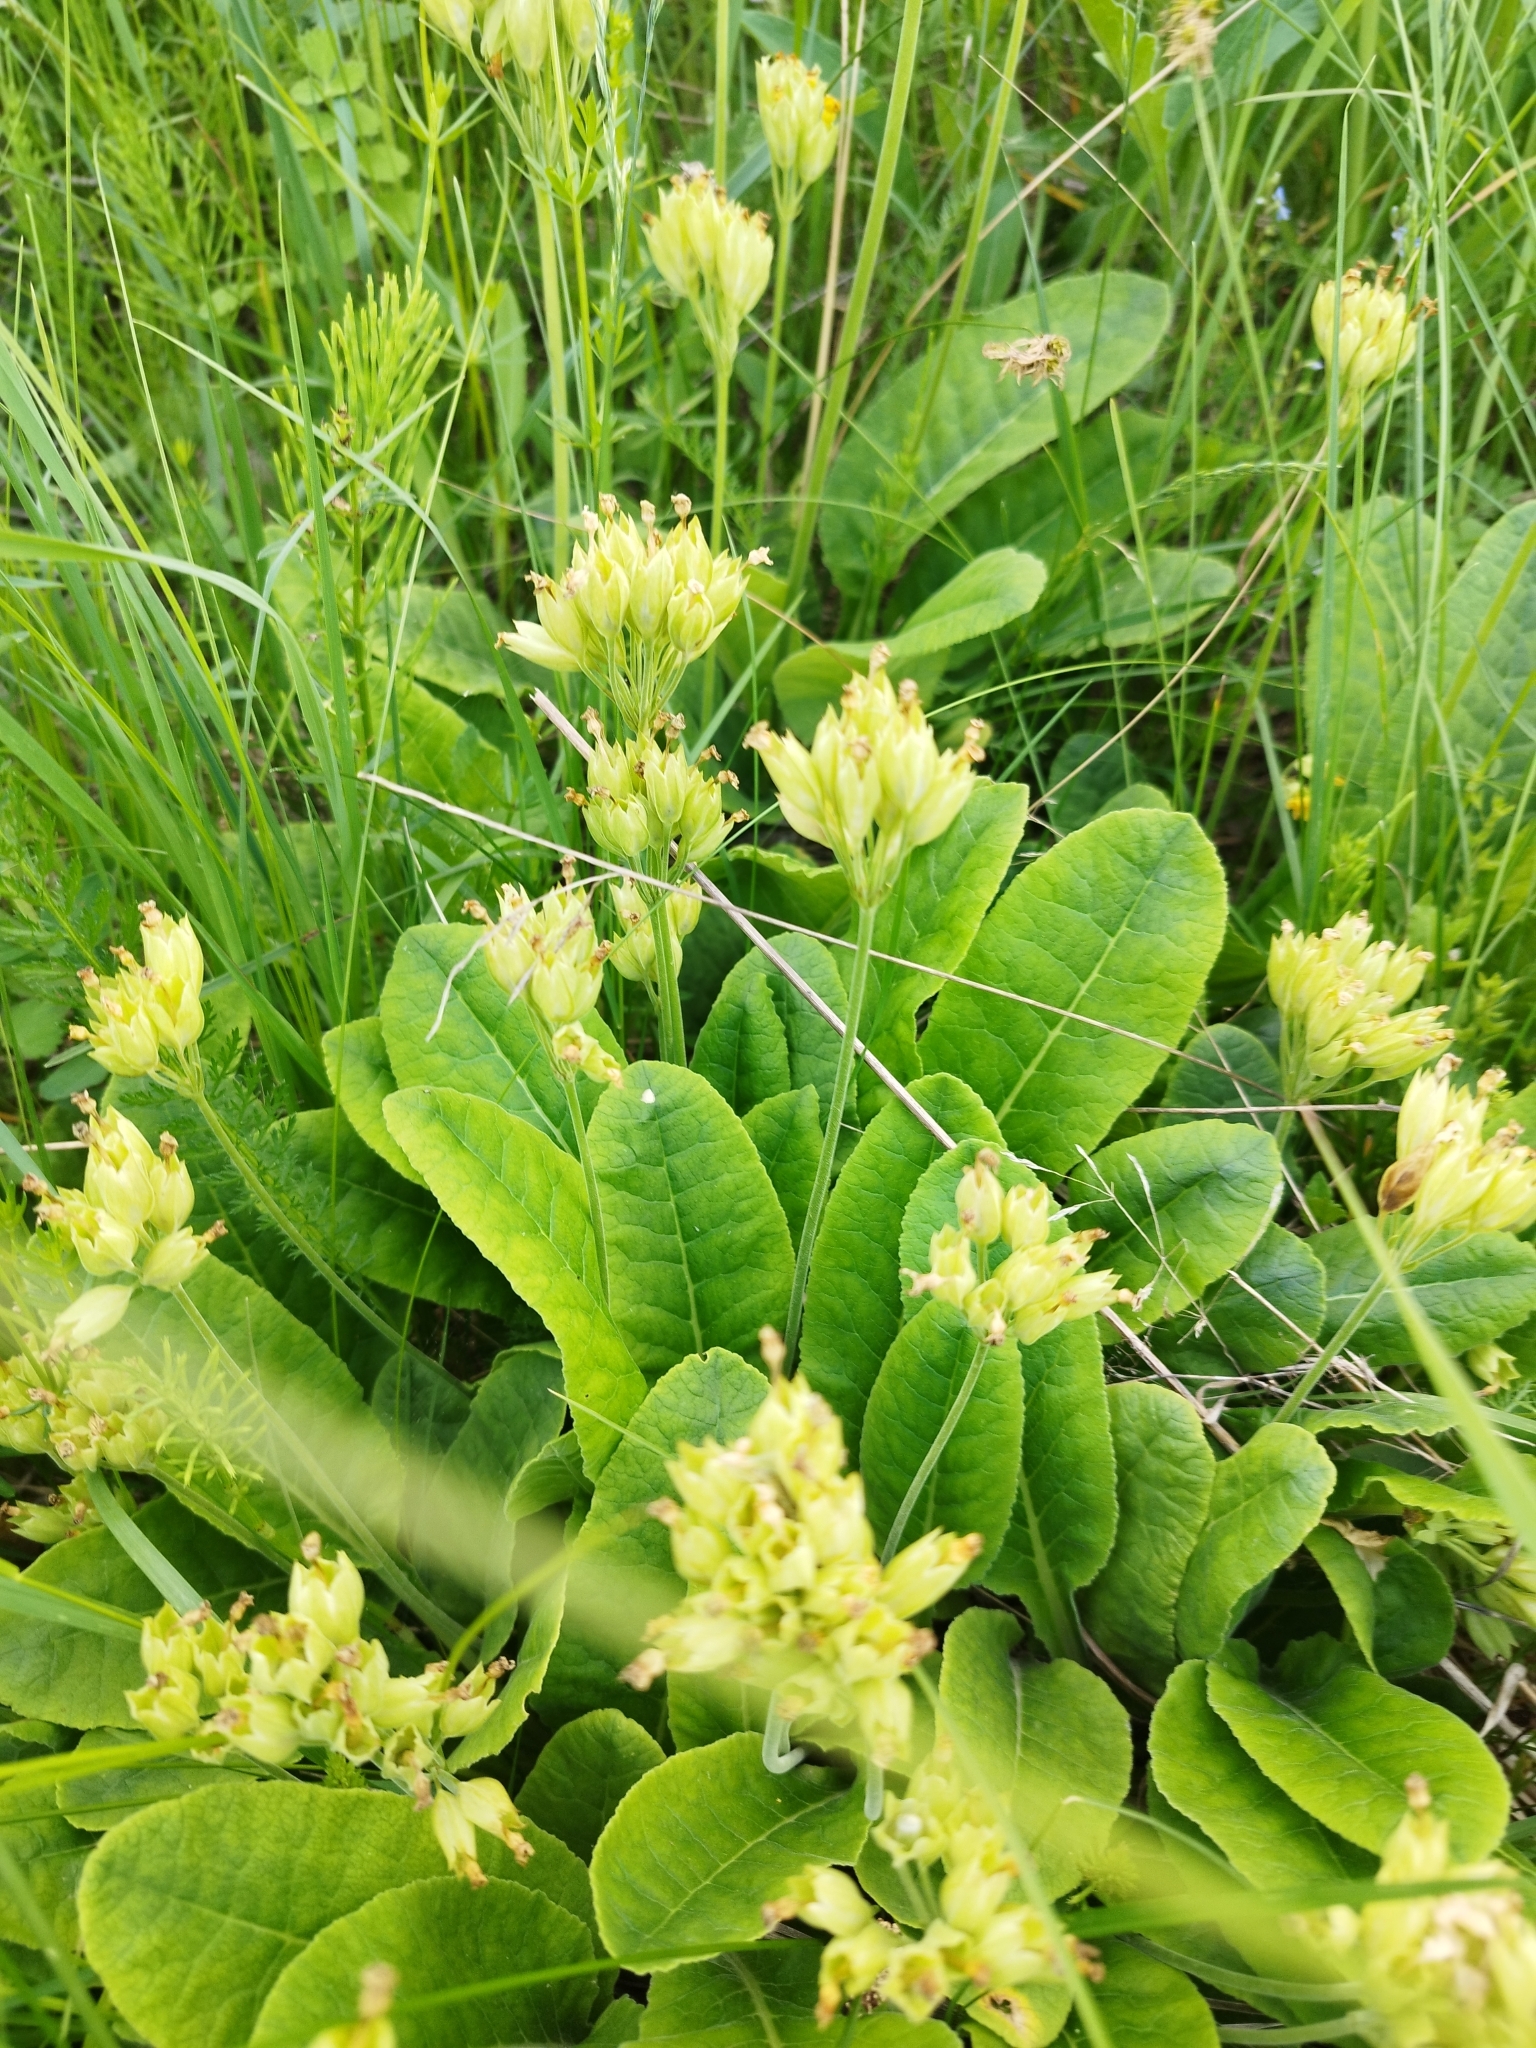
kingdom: Plantae
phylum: Tracheophyta
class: Magnoliopsida
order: Ericales
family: Primulaceae
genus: Primula
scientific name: Primula veris
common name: Cowslip
